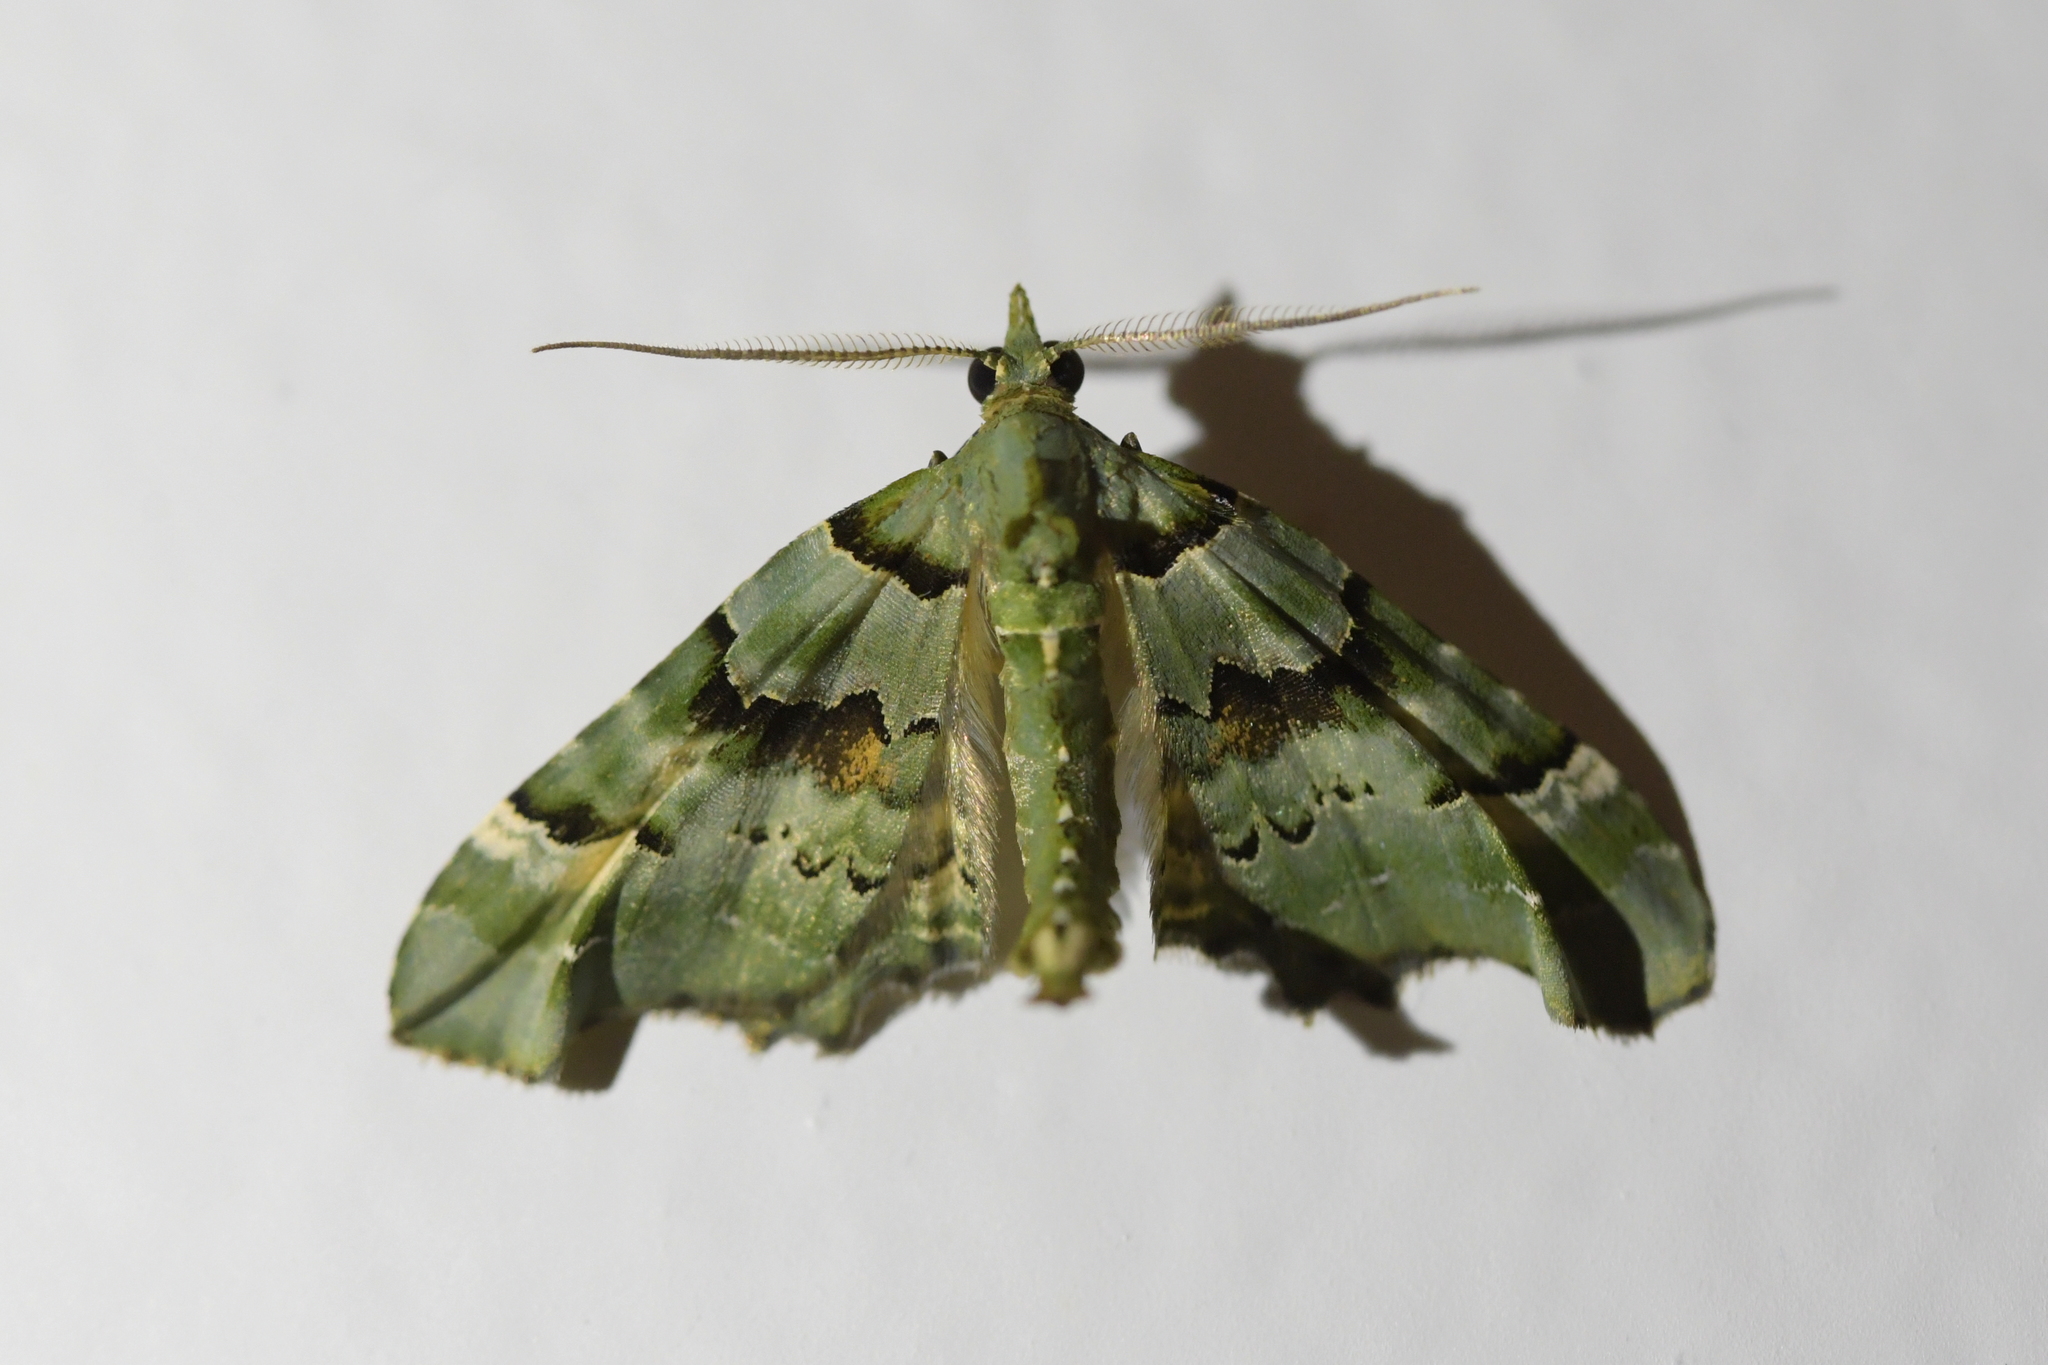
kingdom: Animalia
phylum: Arthropoda
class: Insecta
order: Lepidoptera
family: Geometridae
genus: Elvia
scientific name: Elvia glaucata
